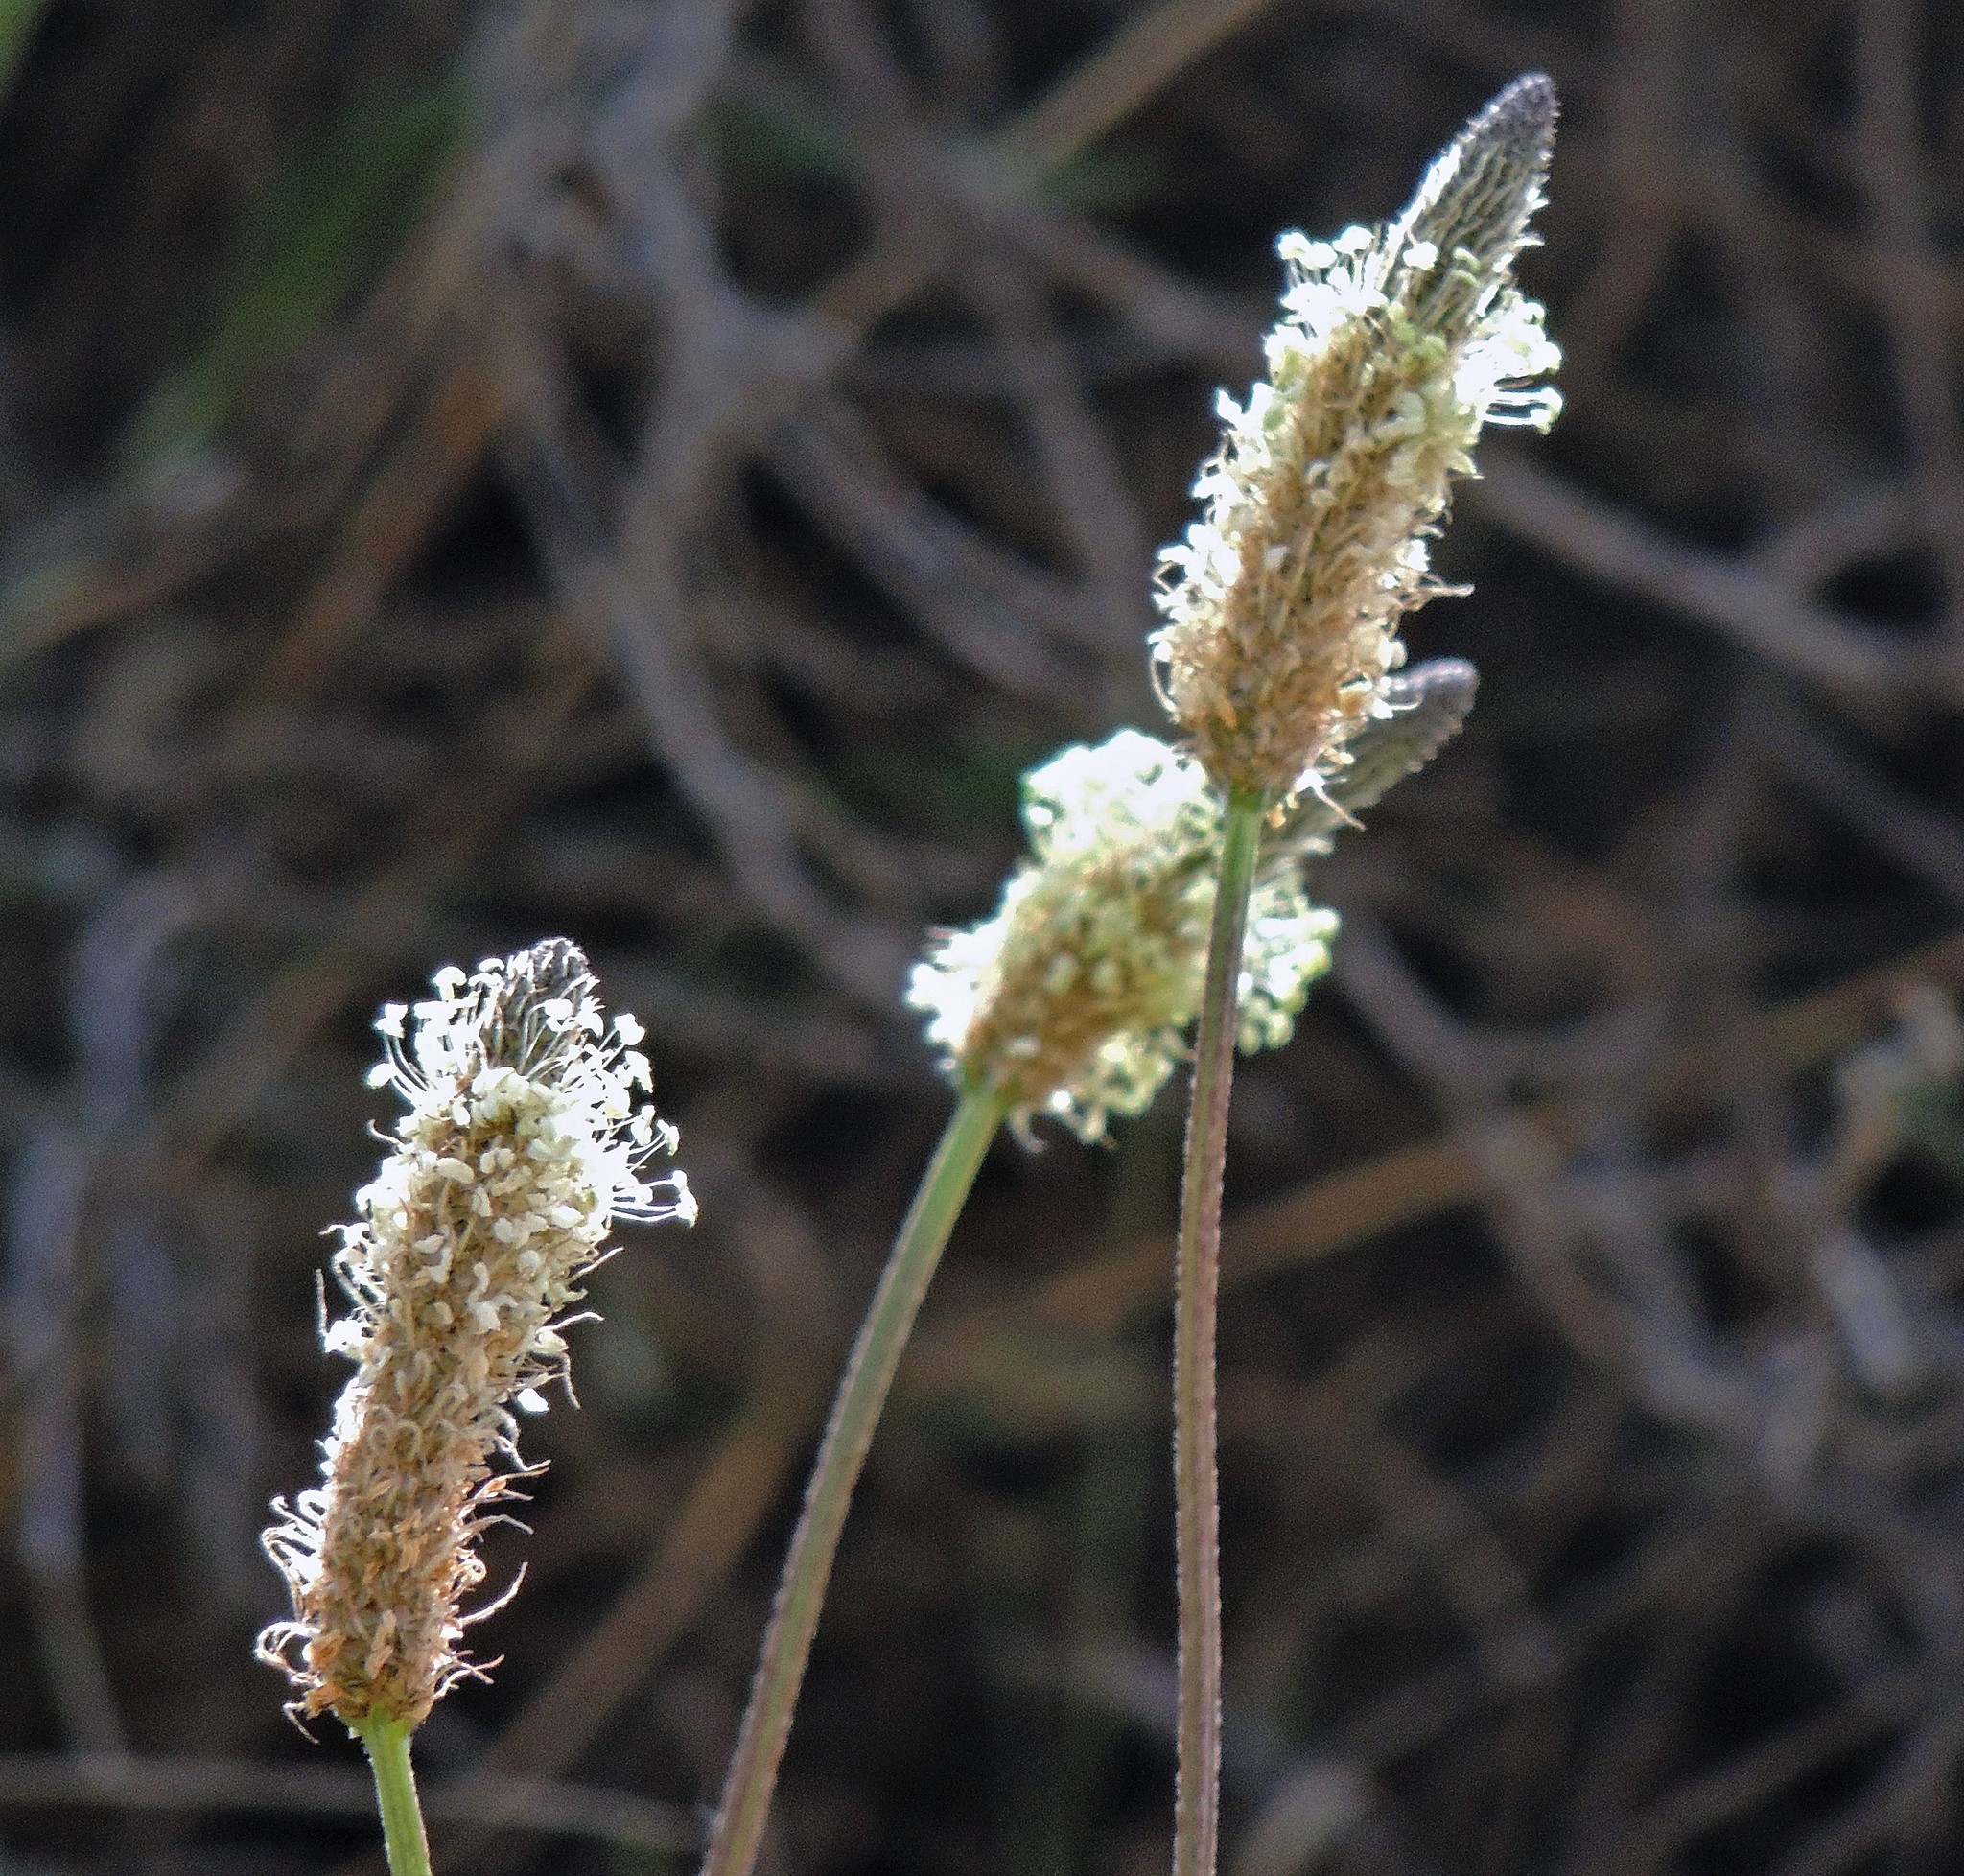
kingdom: Plantae
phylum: Tracheophyta
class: Magnoliopsida
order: Lamiales
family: Plantaginaceae
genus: Plantago
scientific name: Plantago lanceolata
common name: Ribwort plantain
